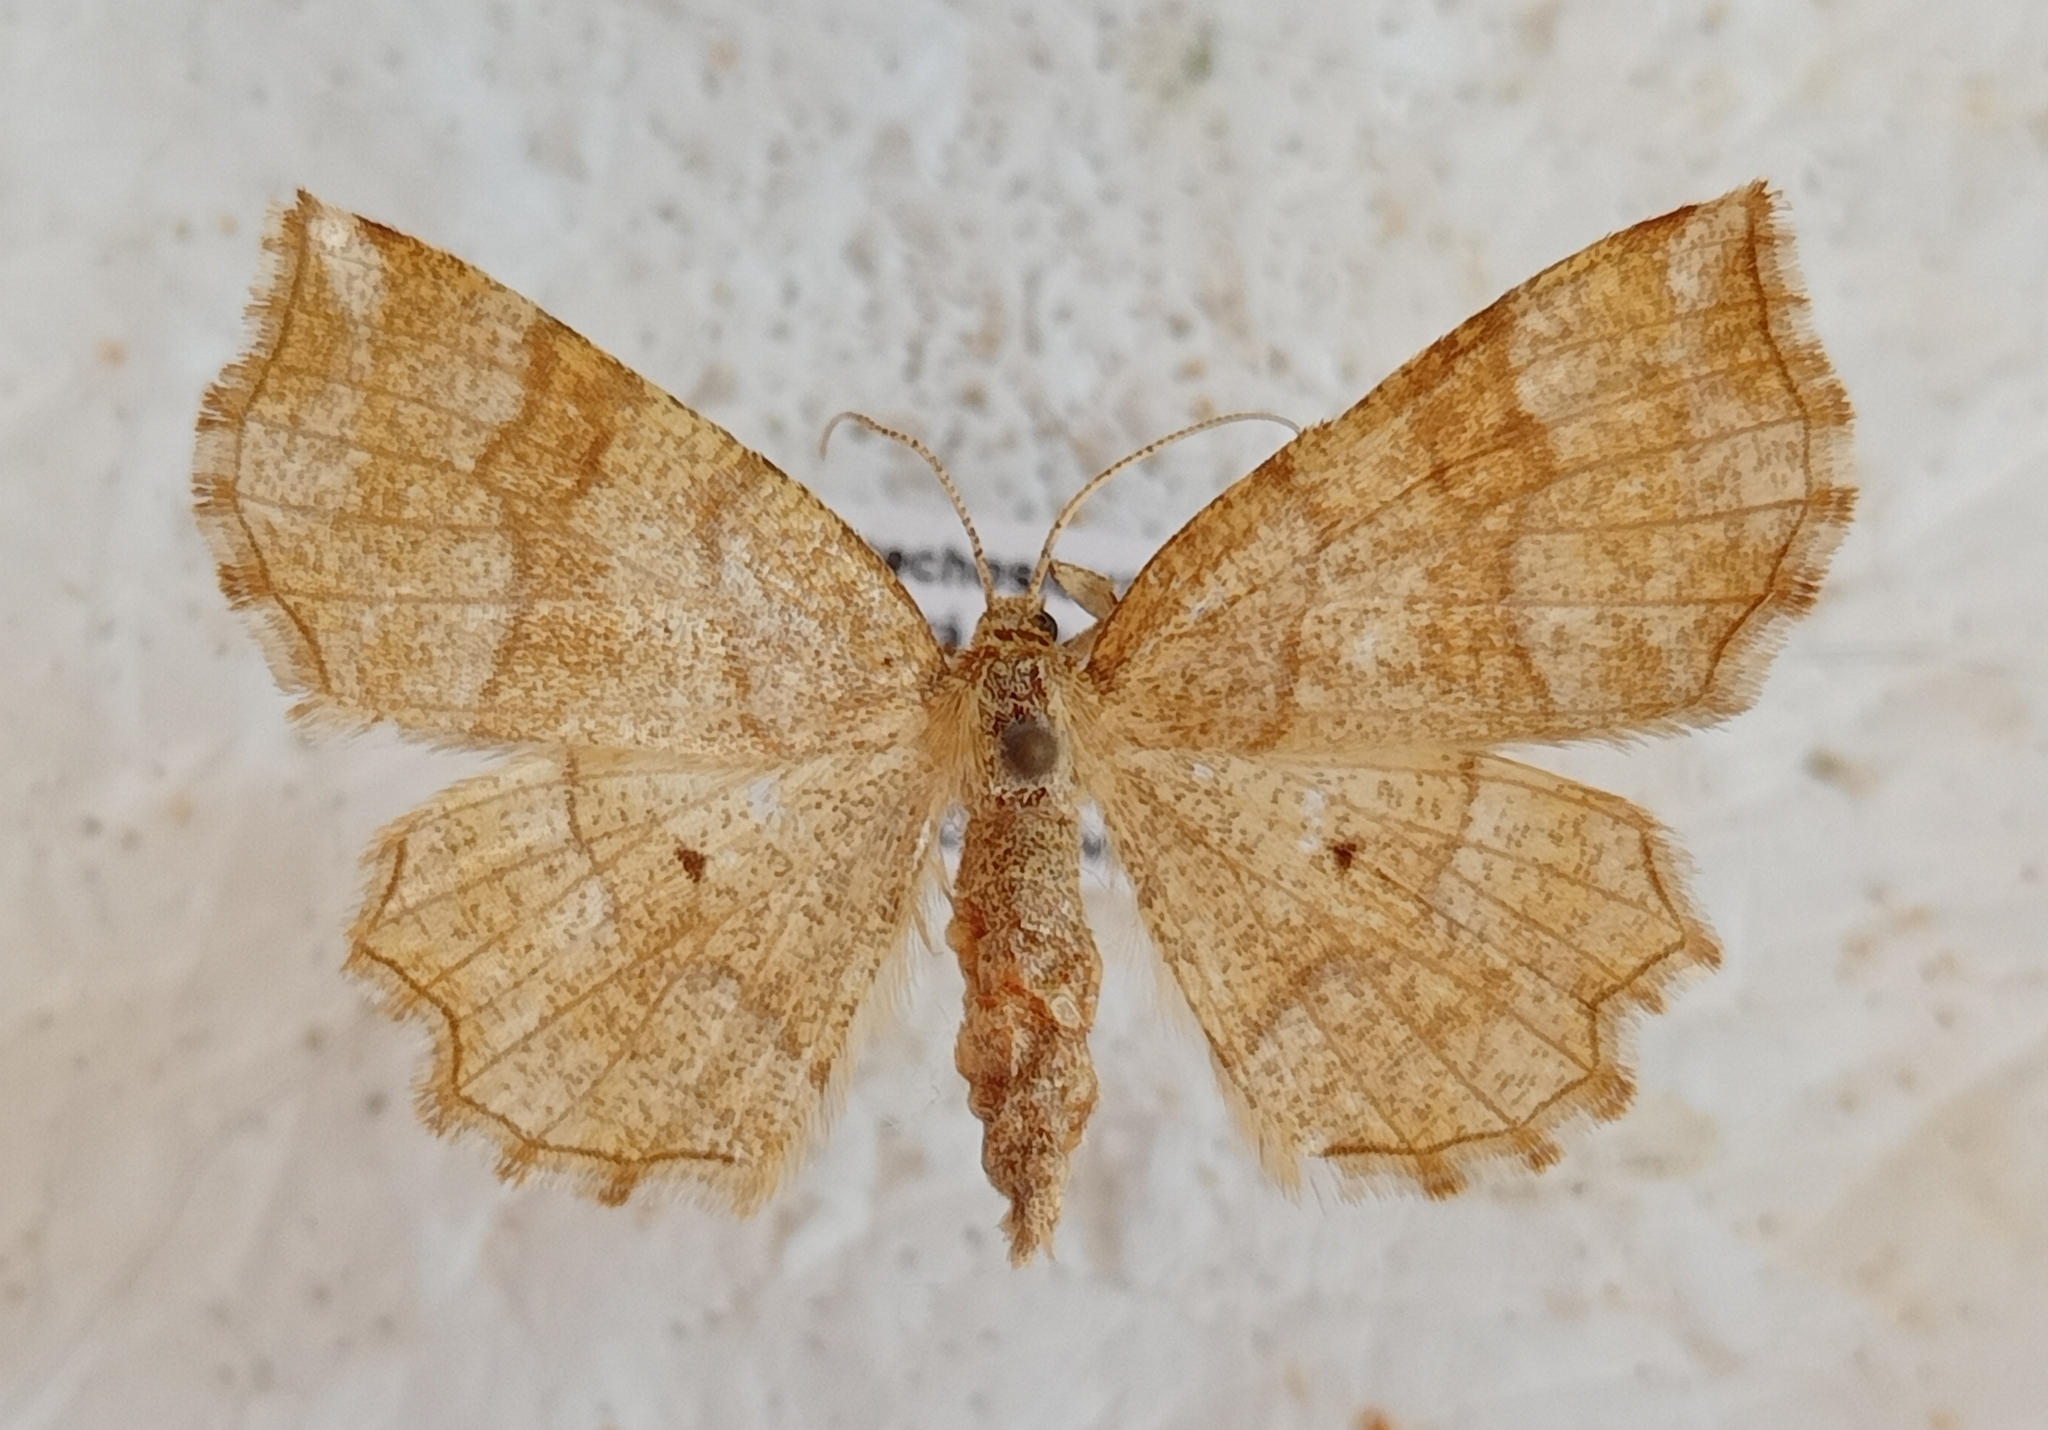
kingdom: Animalia
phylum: Arthropoda
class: Insecta
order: Lepidoptera
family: Geometridae
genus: Cepphis
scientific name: Cepphis advenaria
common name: Little thorn
